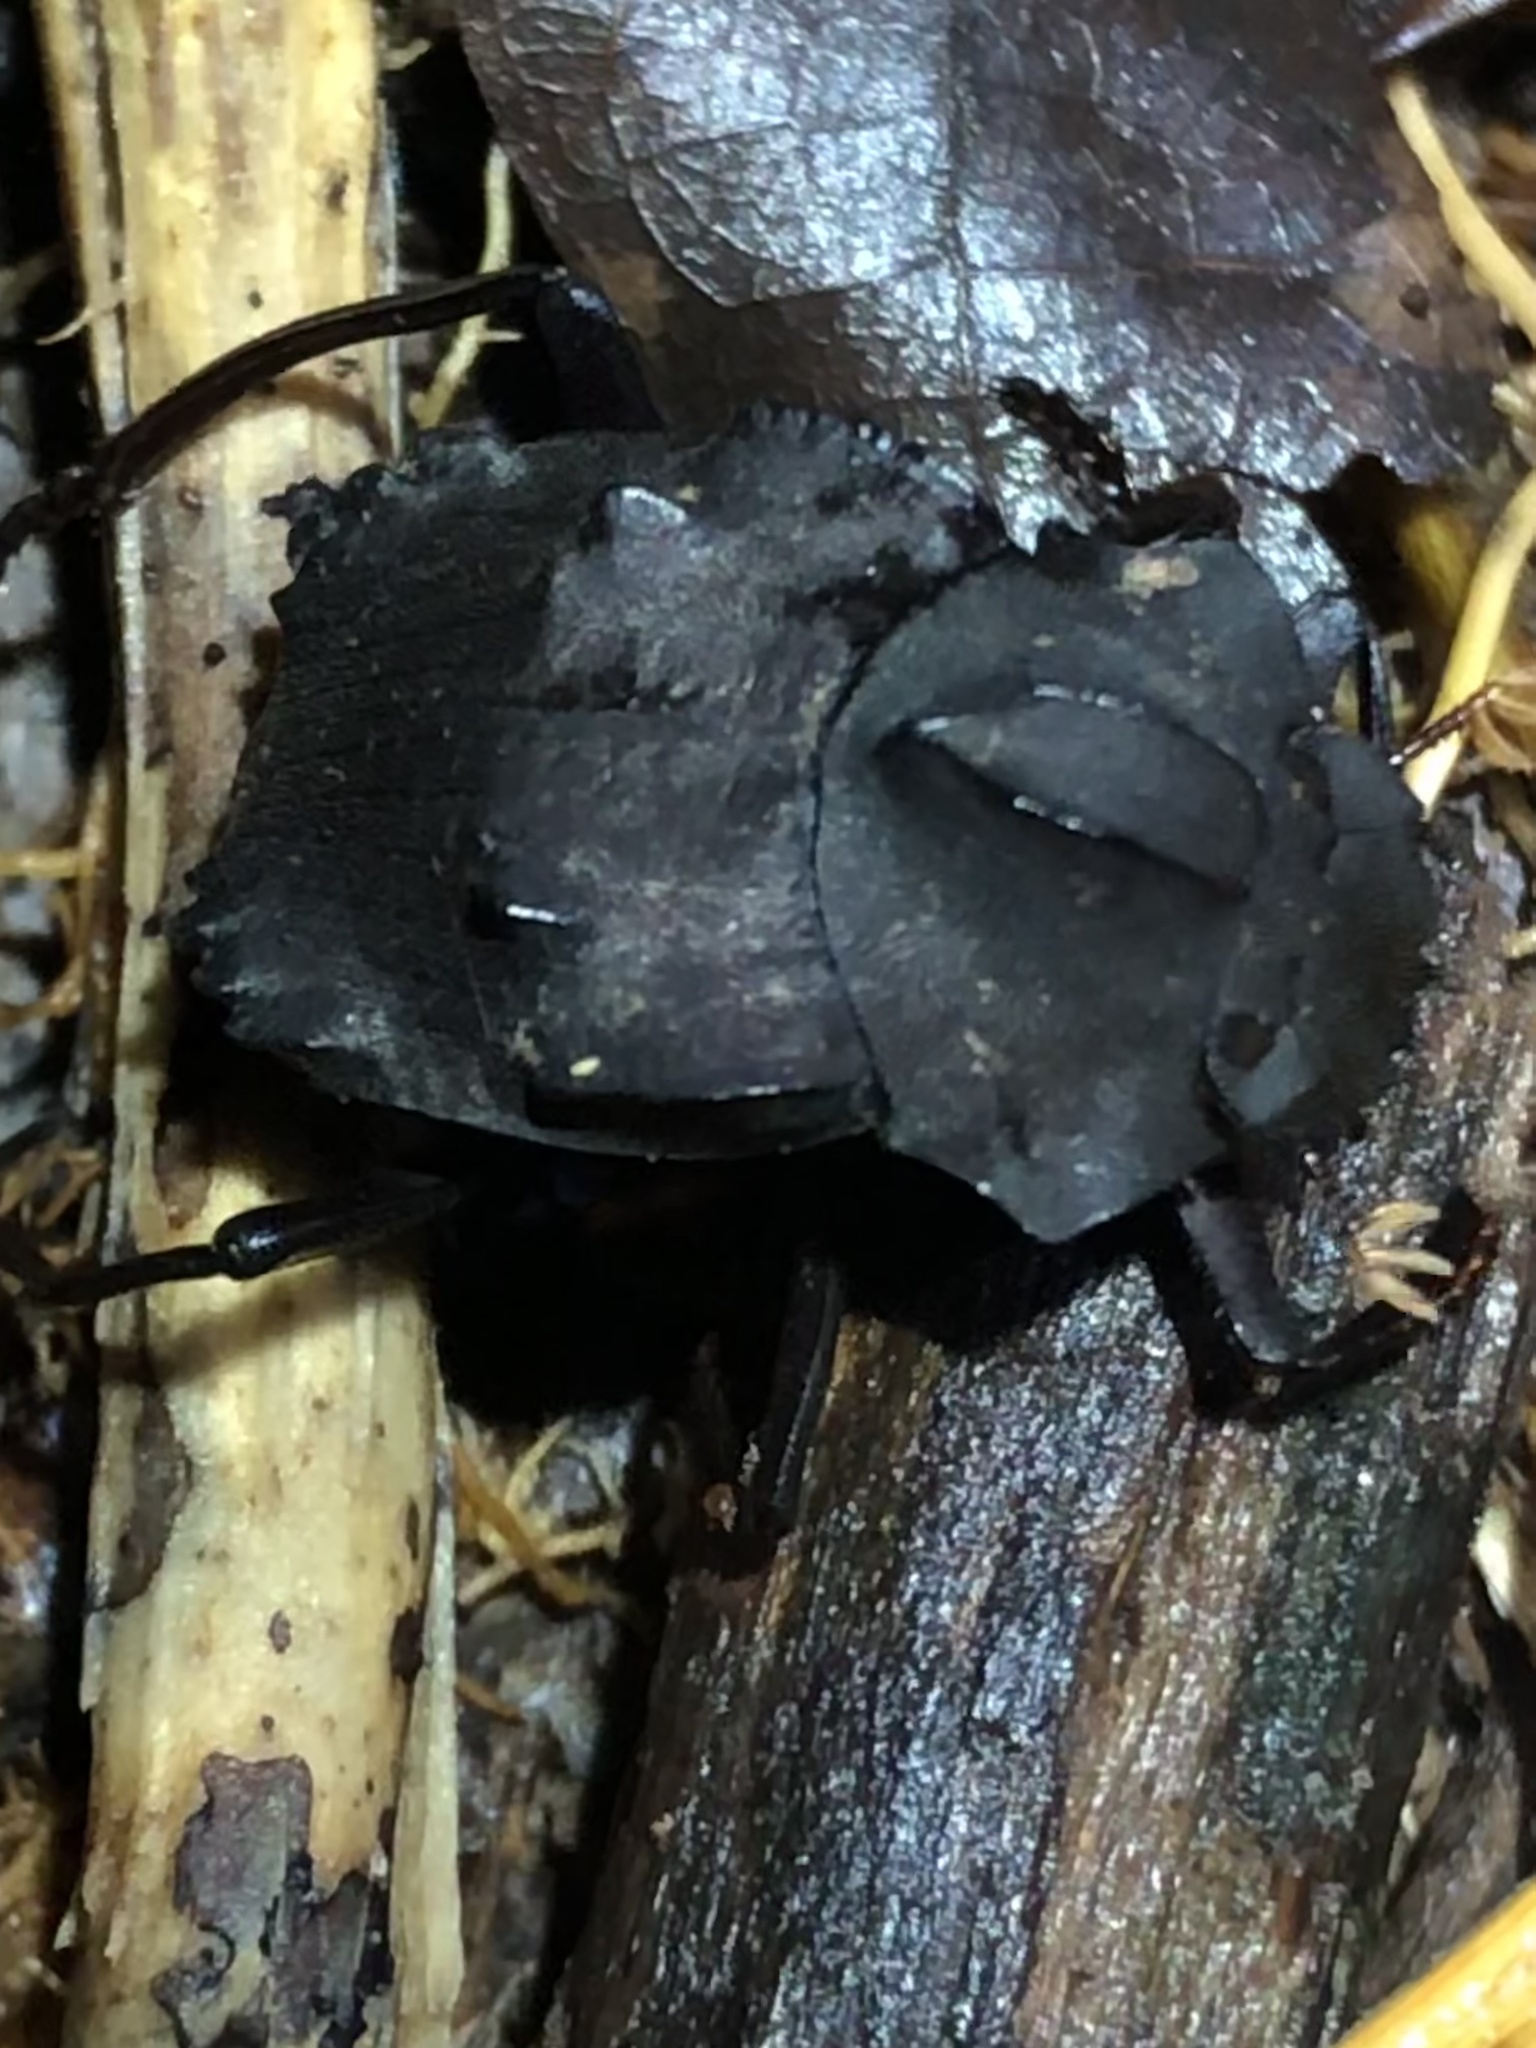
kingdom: Animalia
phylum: Arthropoda
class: Insecta
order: Coleoptera
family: Scarabaeidae
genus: Deltochilum
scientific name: Deltochilum carinatum
